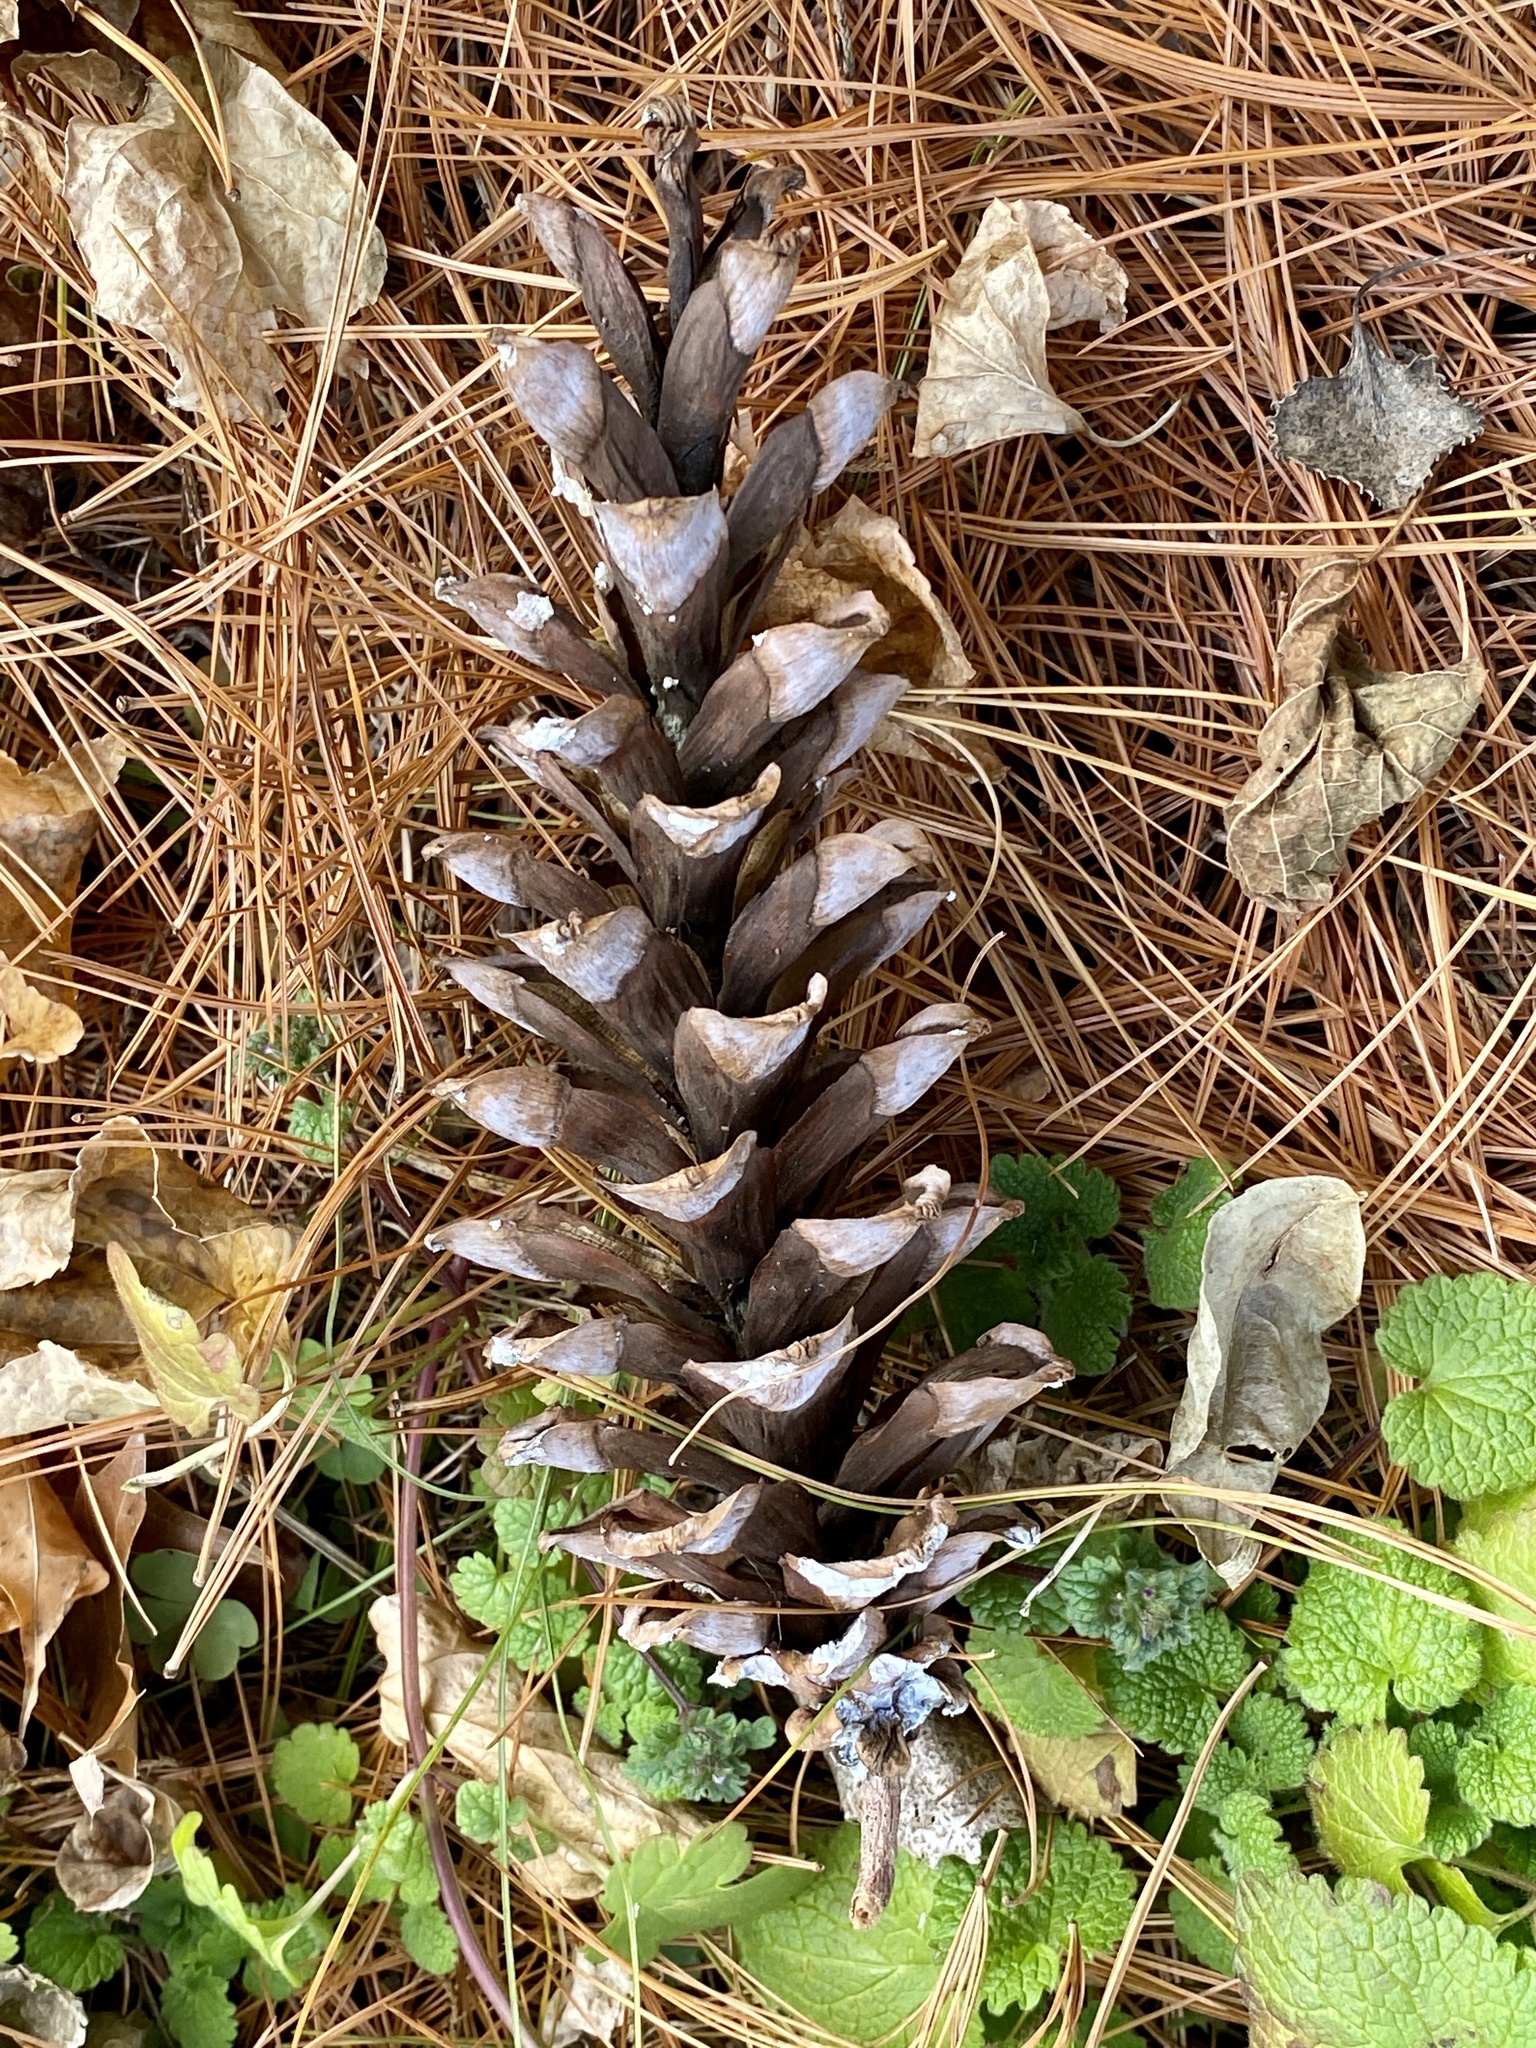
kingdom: Plantae
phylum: Tracheophyta
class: Pinopsida
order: Pinales
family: Pinaceae
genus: Pinus
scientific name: Pinus strobus
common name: Weymouth pine
